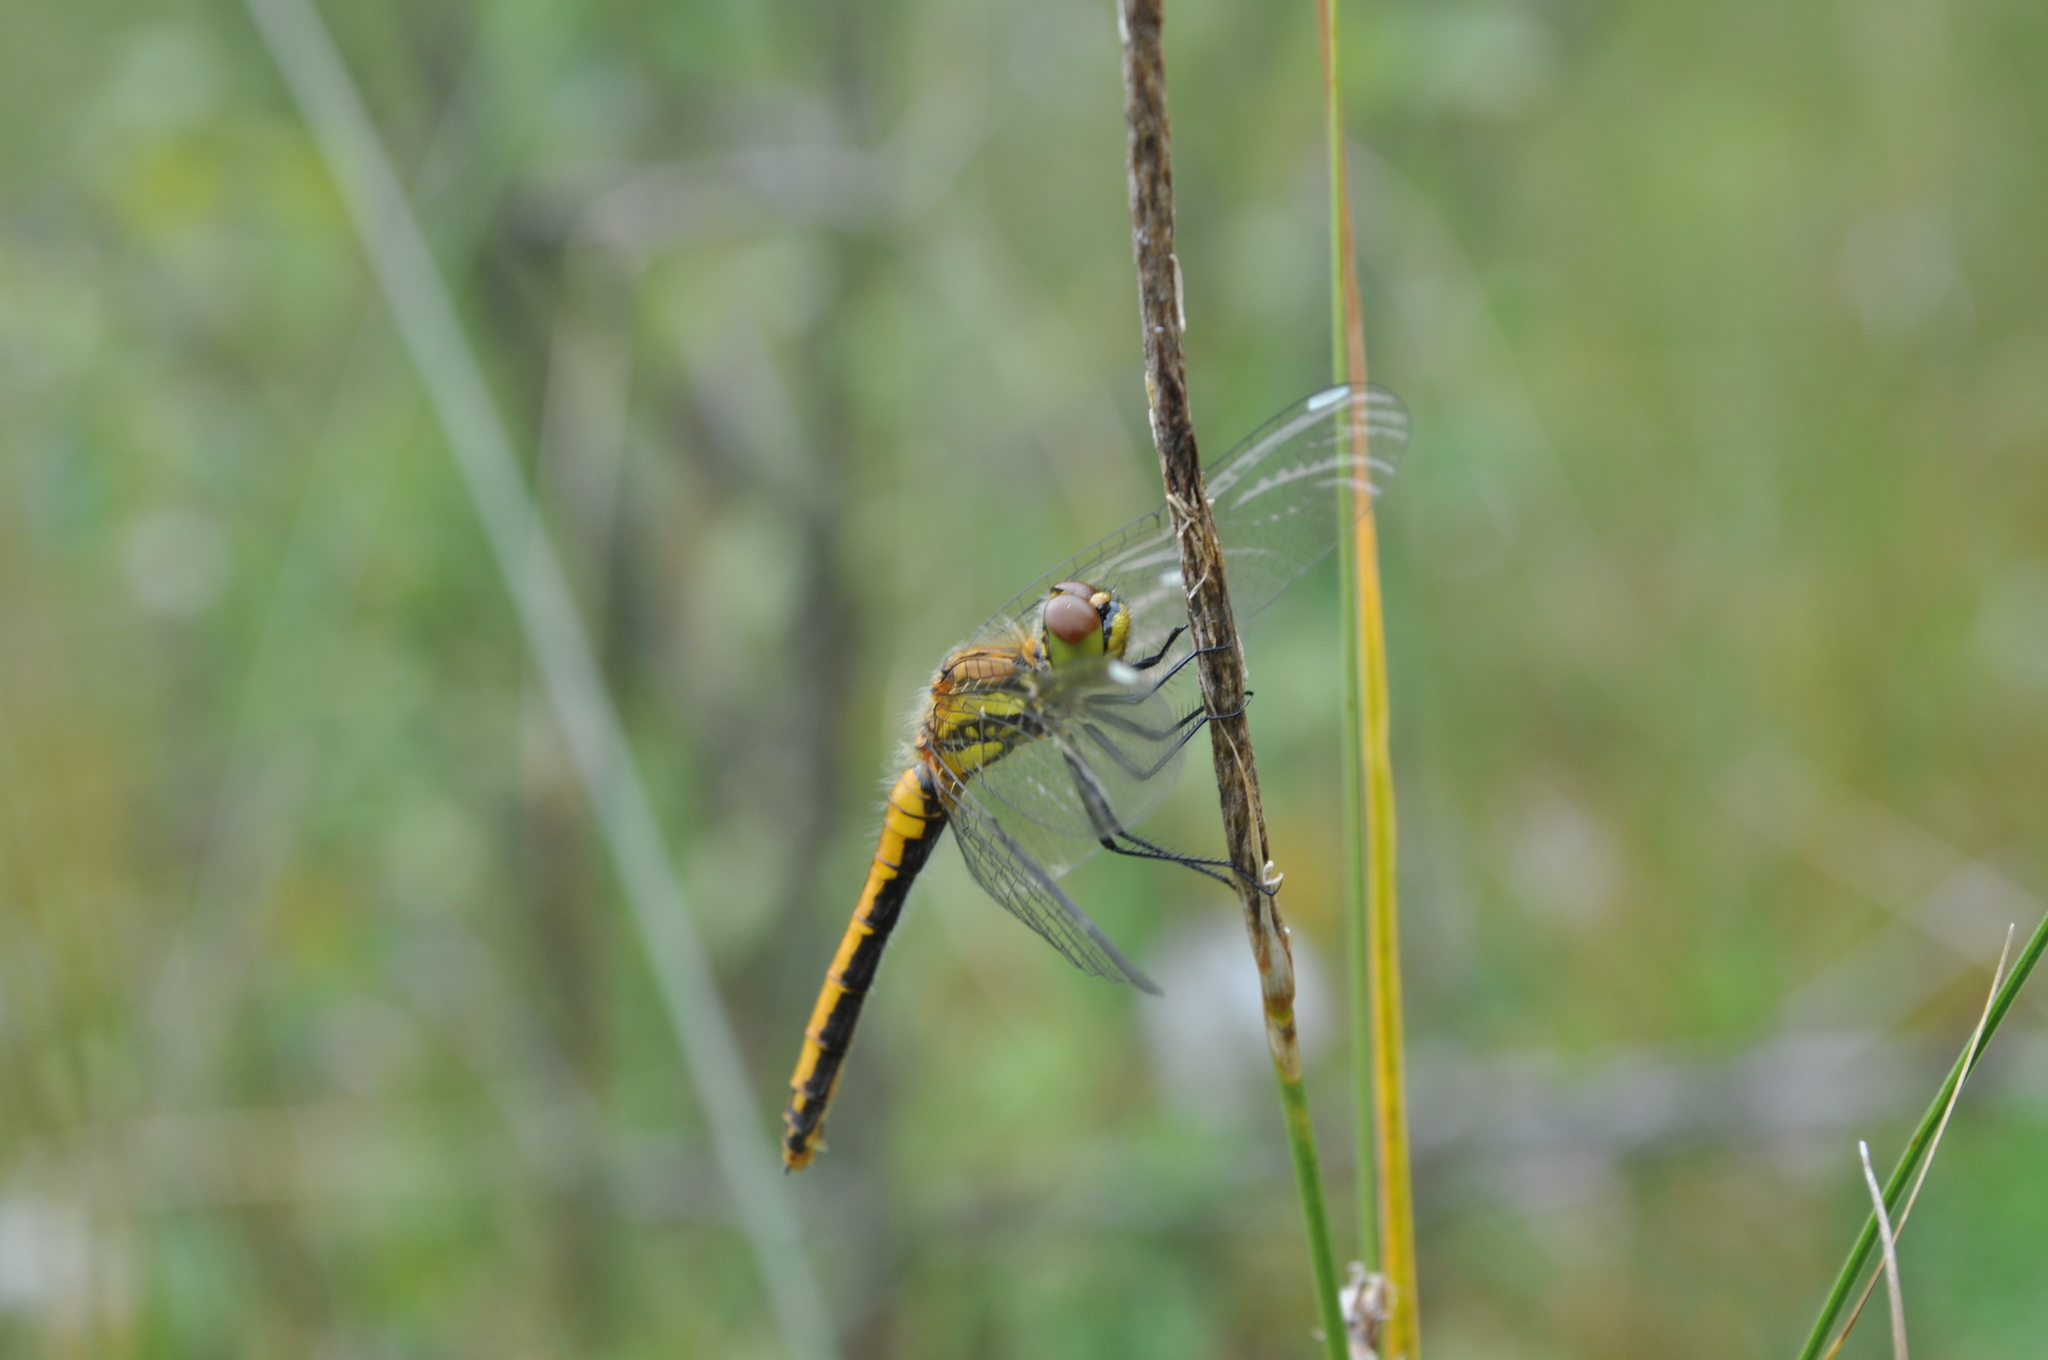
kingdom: Animalia
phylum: Arthropoda
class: Insecta
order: Odonata
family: Libellulidae
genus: Sympetrum
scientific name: Sympetrum danae
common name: Black darter
